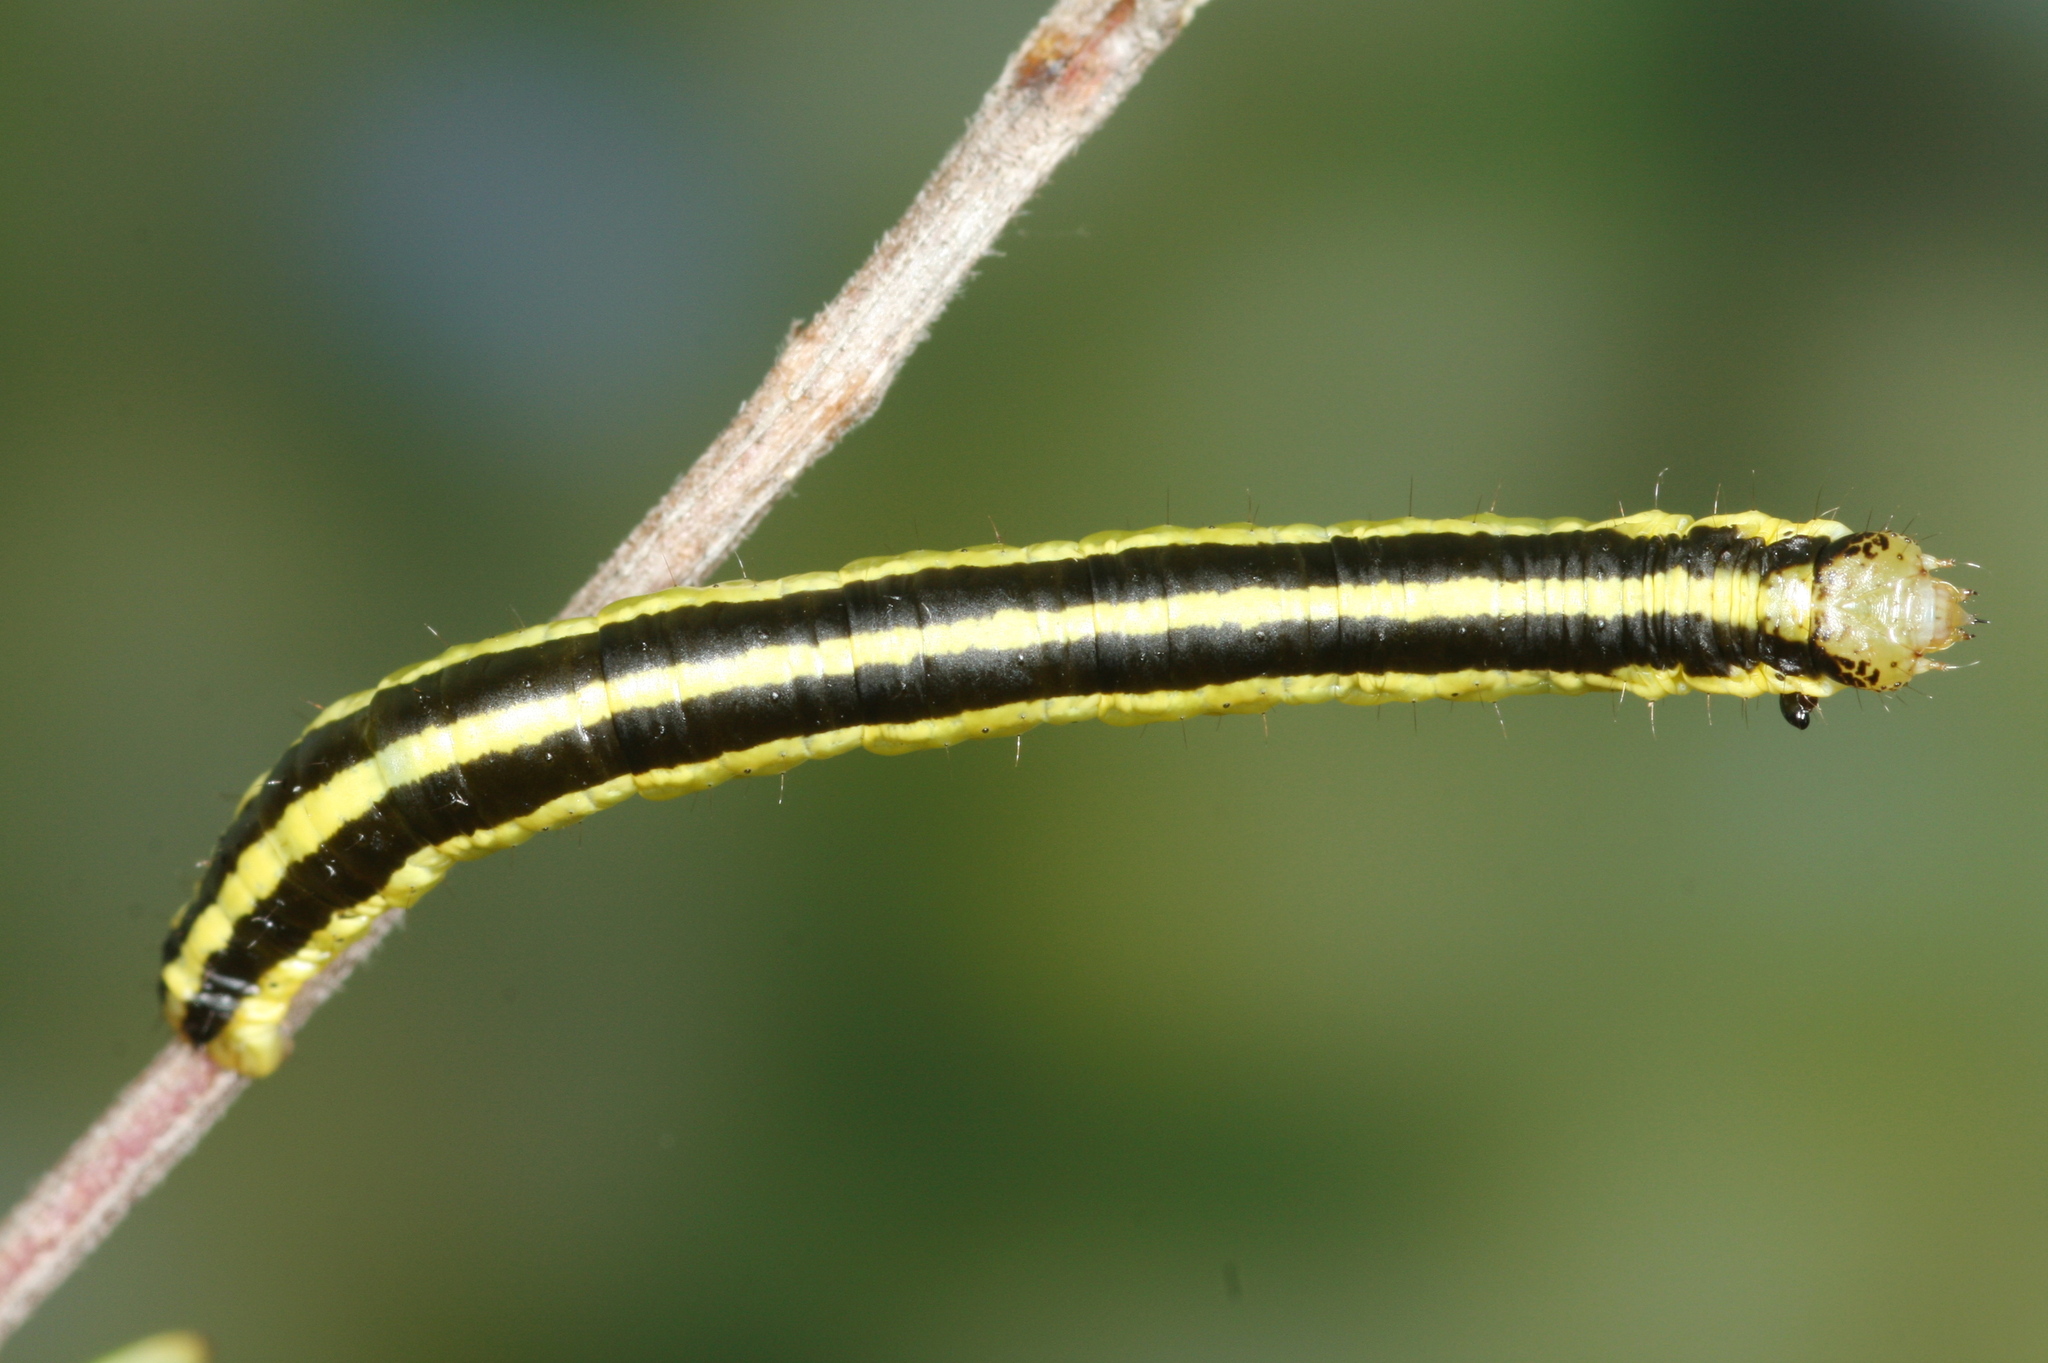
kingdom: Animalia
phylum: Arthropoda
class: Insecta
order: Lepidoptera
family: Geometridae
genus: Catarhoe
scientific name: Catarhoe cuculata
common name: Royal mantle
